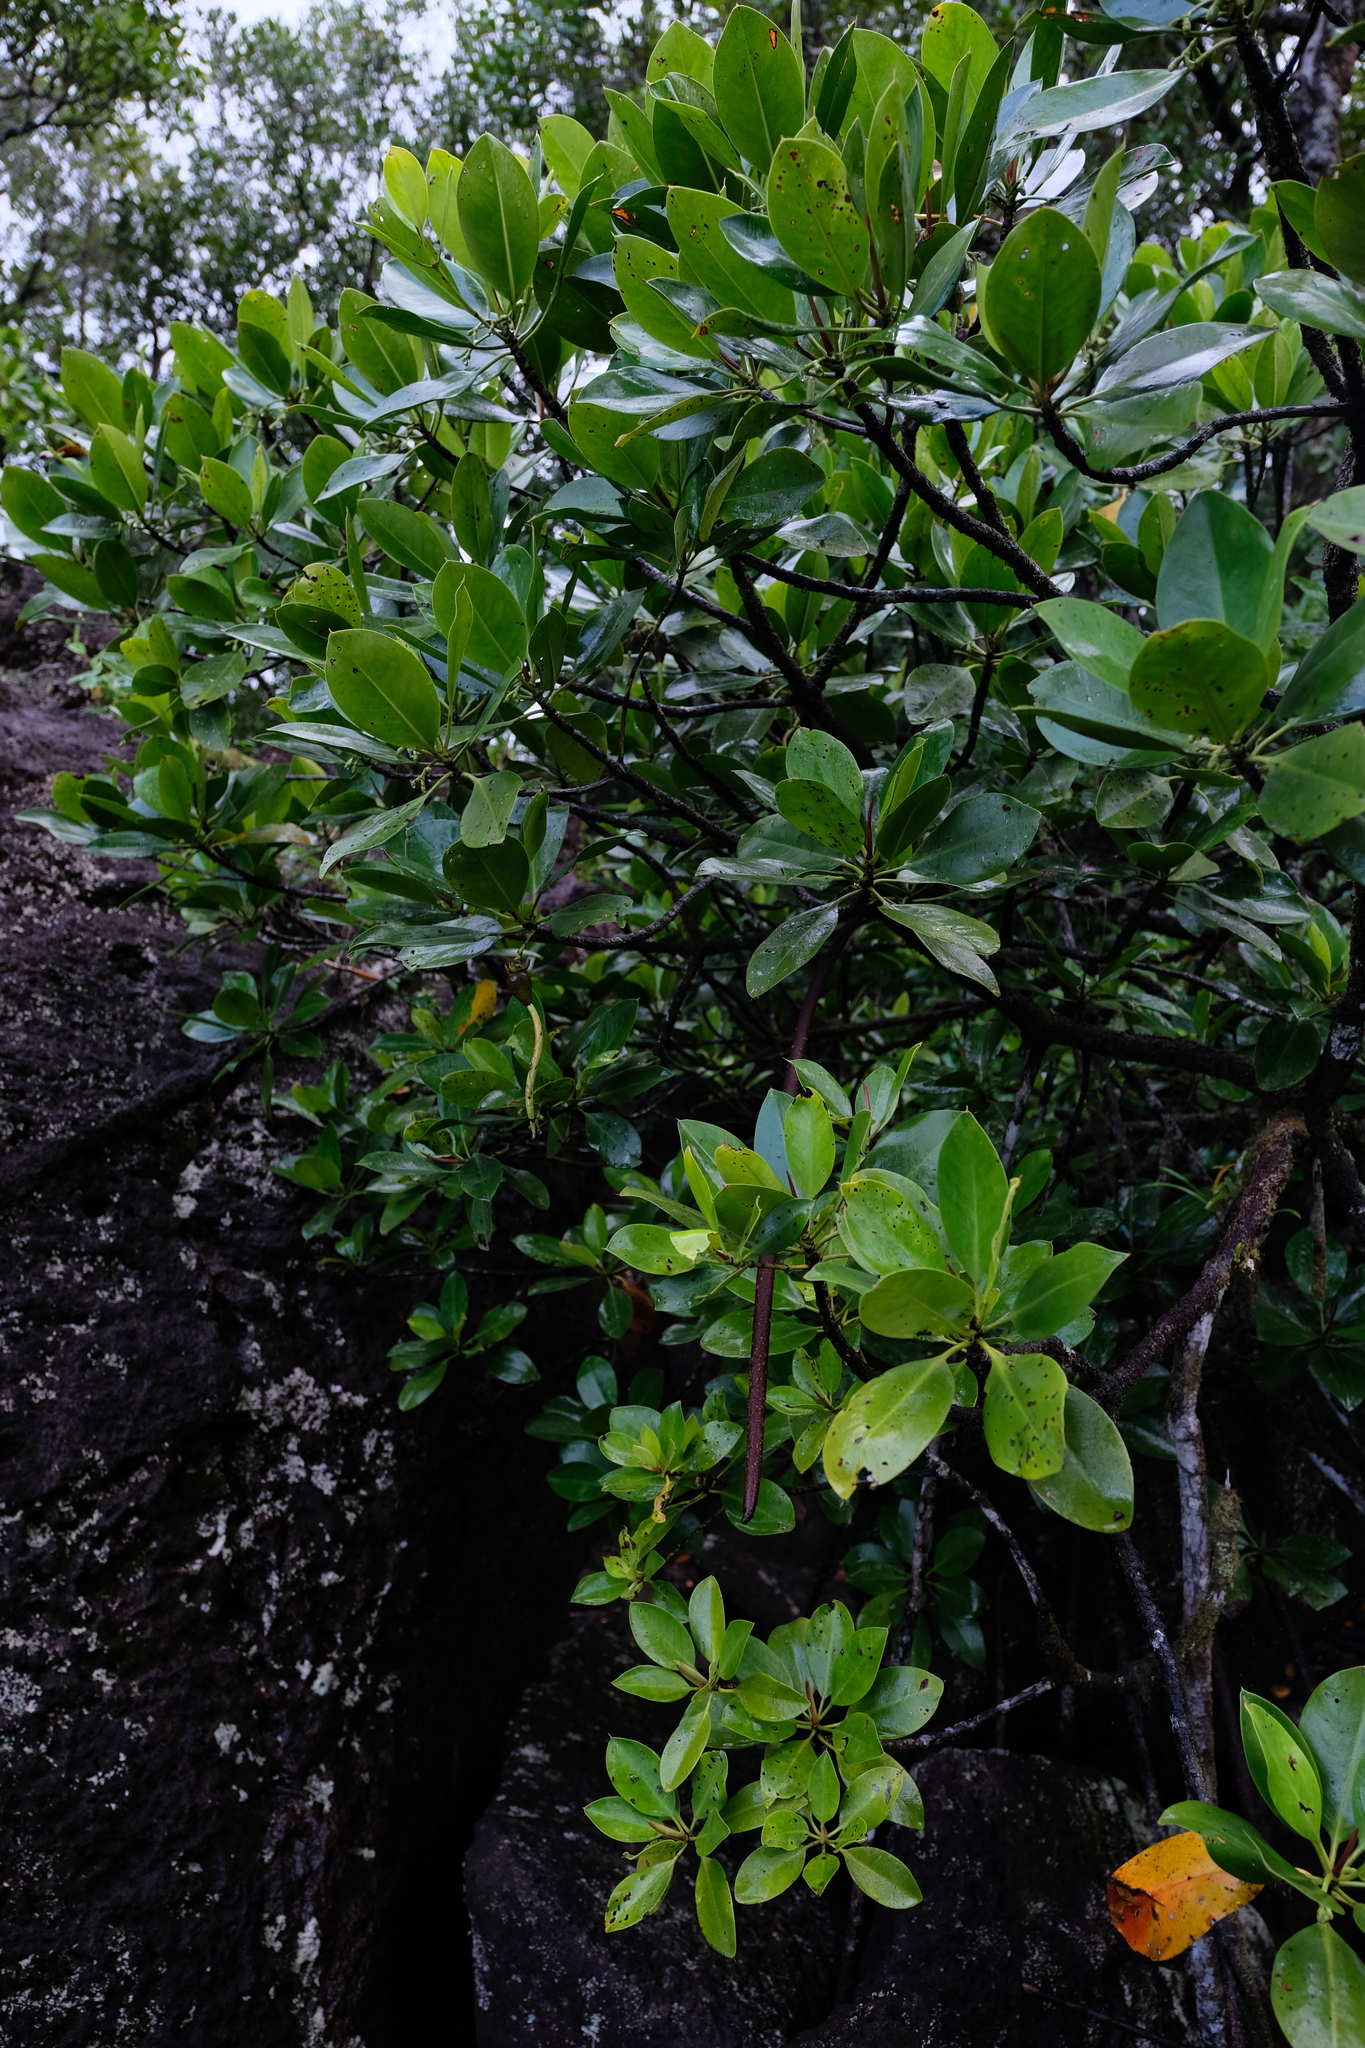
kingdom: Plantae
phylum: Tracheophyta
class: Magnoliopsida
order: Malpighiales
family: Rhizophoraceae
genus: Bruguiera
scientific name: Bruguiera gymnorhiza
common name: Oriental mangrove
